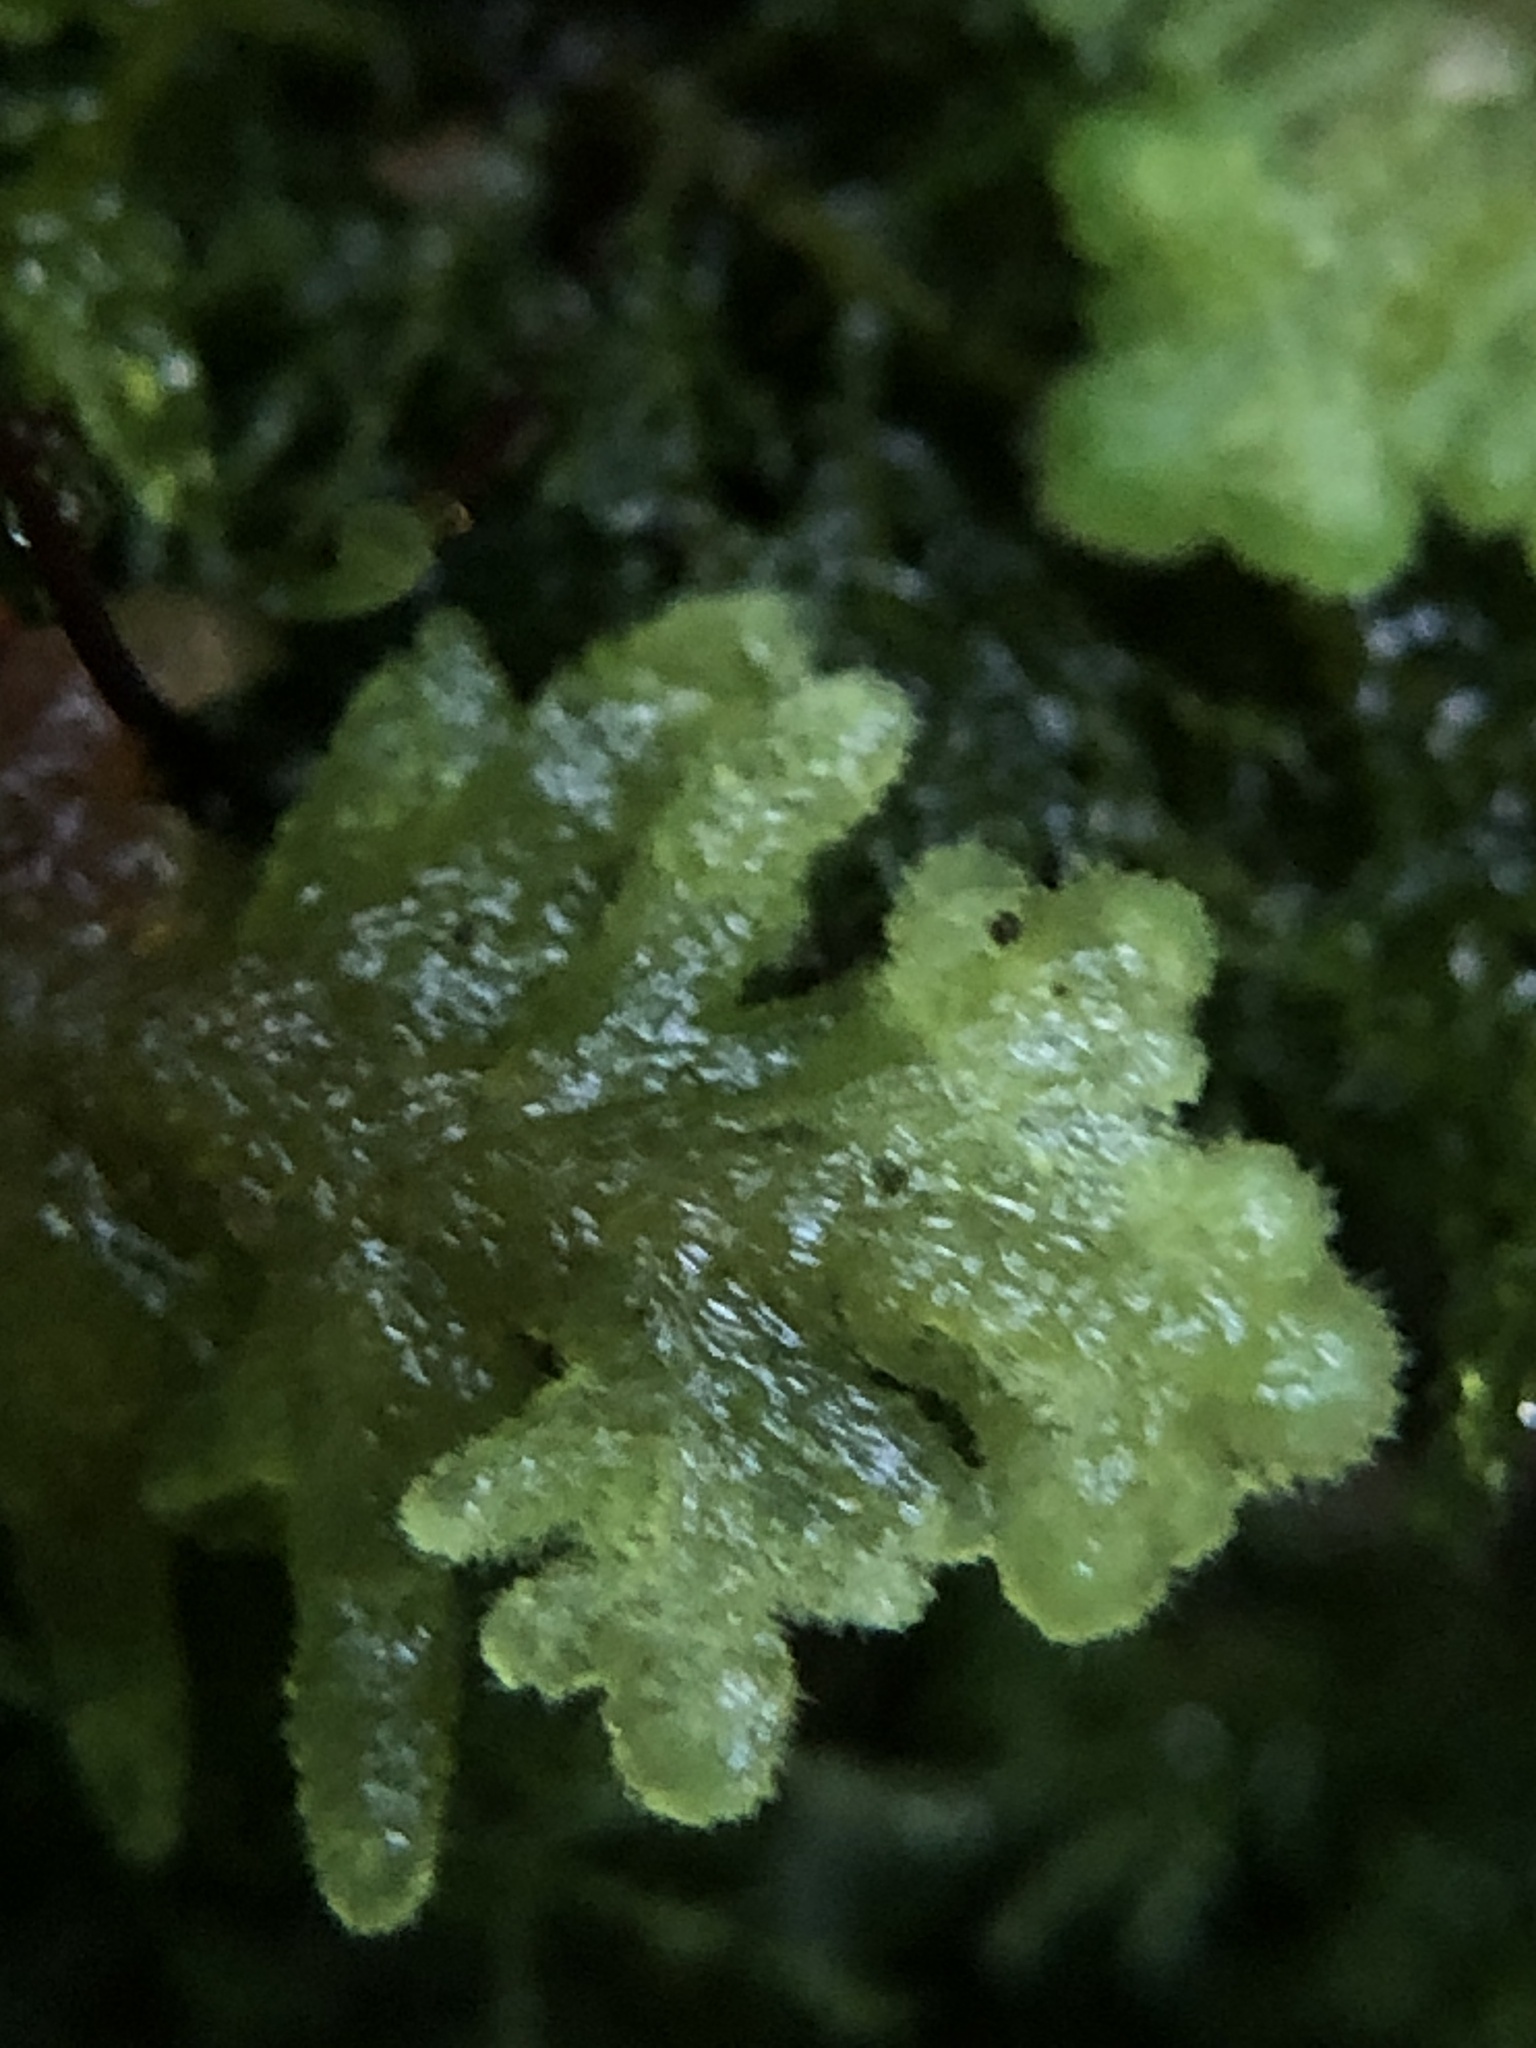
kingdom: Plantae
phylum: Marchantiophyta
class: Jungermanniopsida
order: Jungermanniales
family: Trichocoleaceae
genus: Trichocolea
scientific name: Trichocolea tomentella
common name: Woolly liverwort
